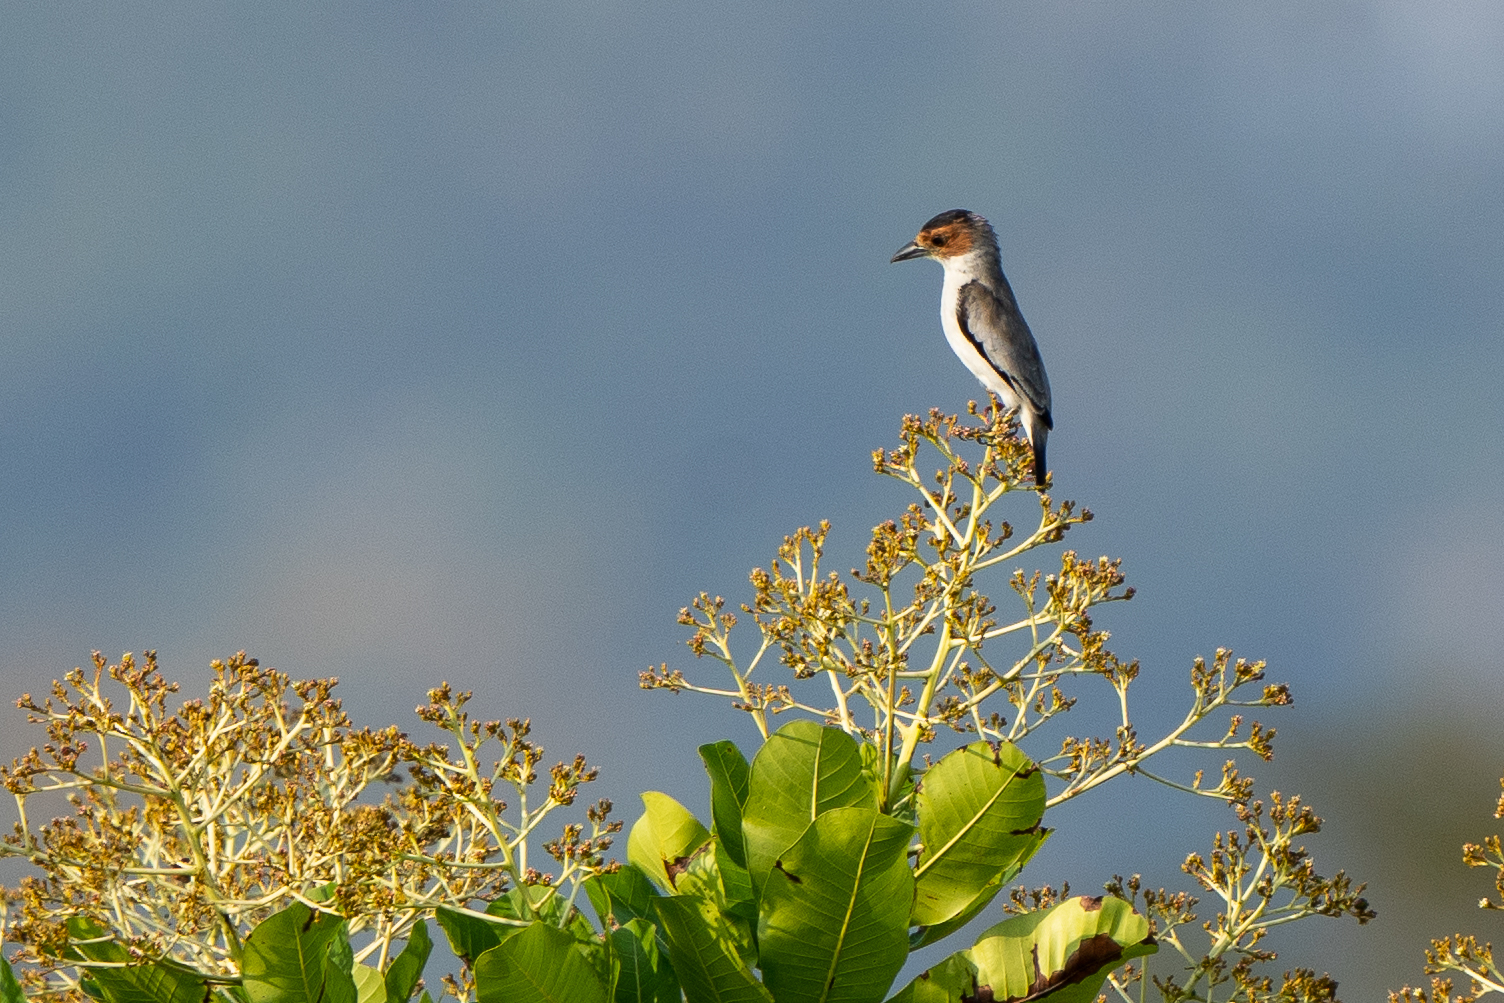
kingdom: Animalia
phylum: Chordata
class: Aves
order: Passeriformes
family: Cotingidae
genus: Tityra
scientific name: Tityra inquisitor
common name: Black-crowned tityra
